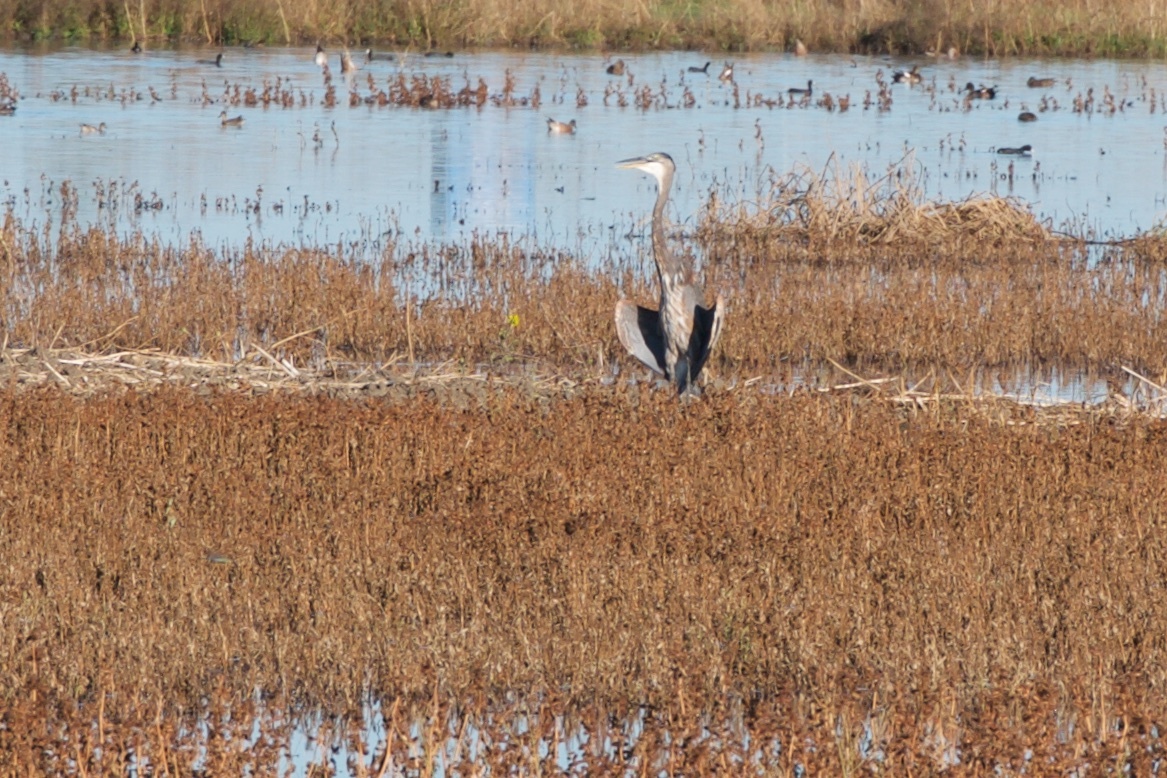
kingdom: Animalia
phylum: Chordata
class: Aves
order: Pelecaniformes
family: Ardeidae
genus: Ardea
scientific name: Ardea herodias
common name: Great blue heron
